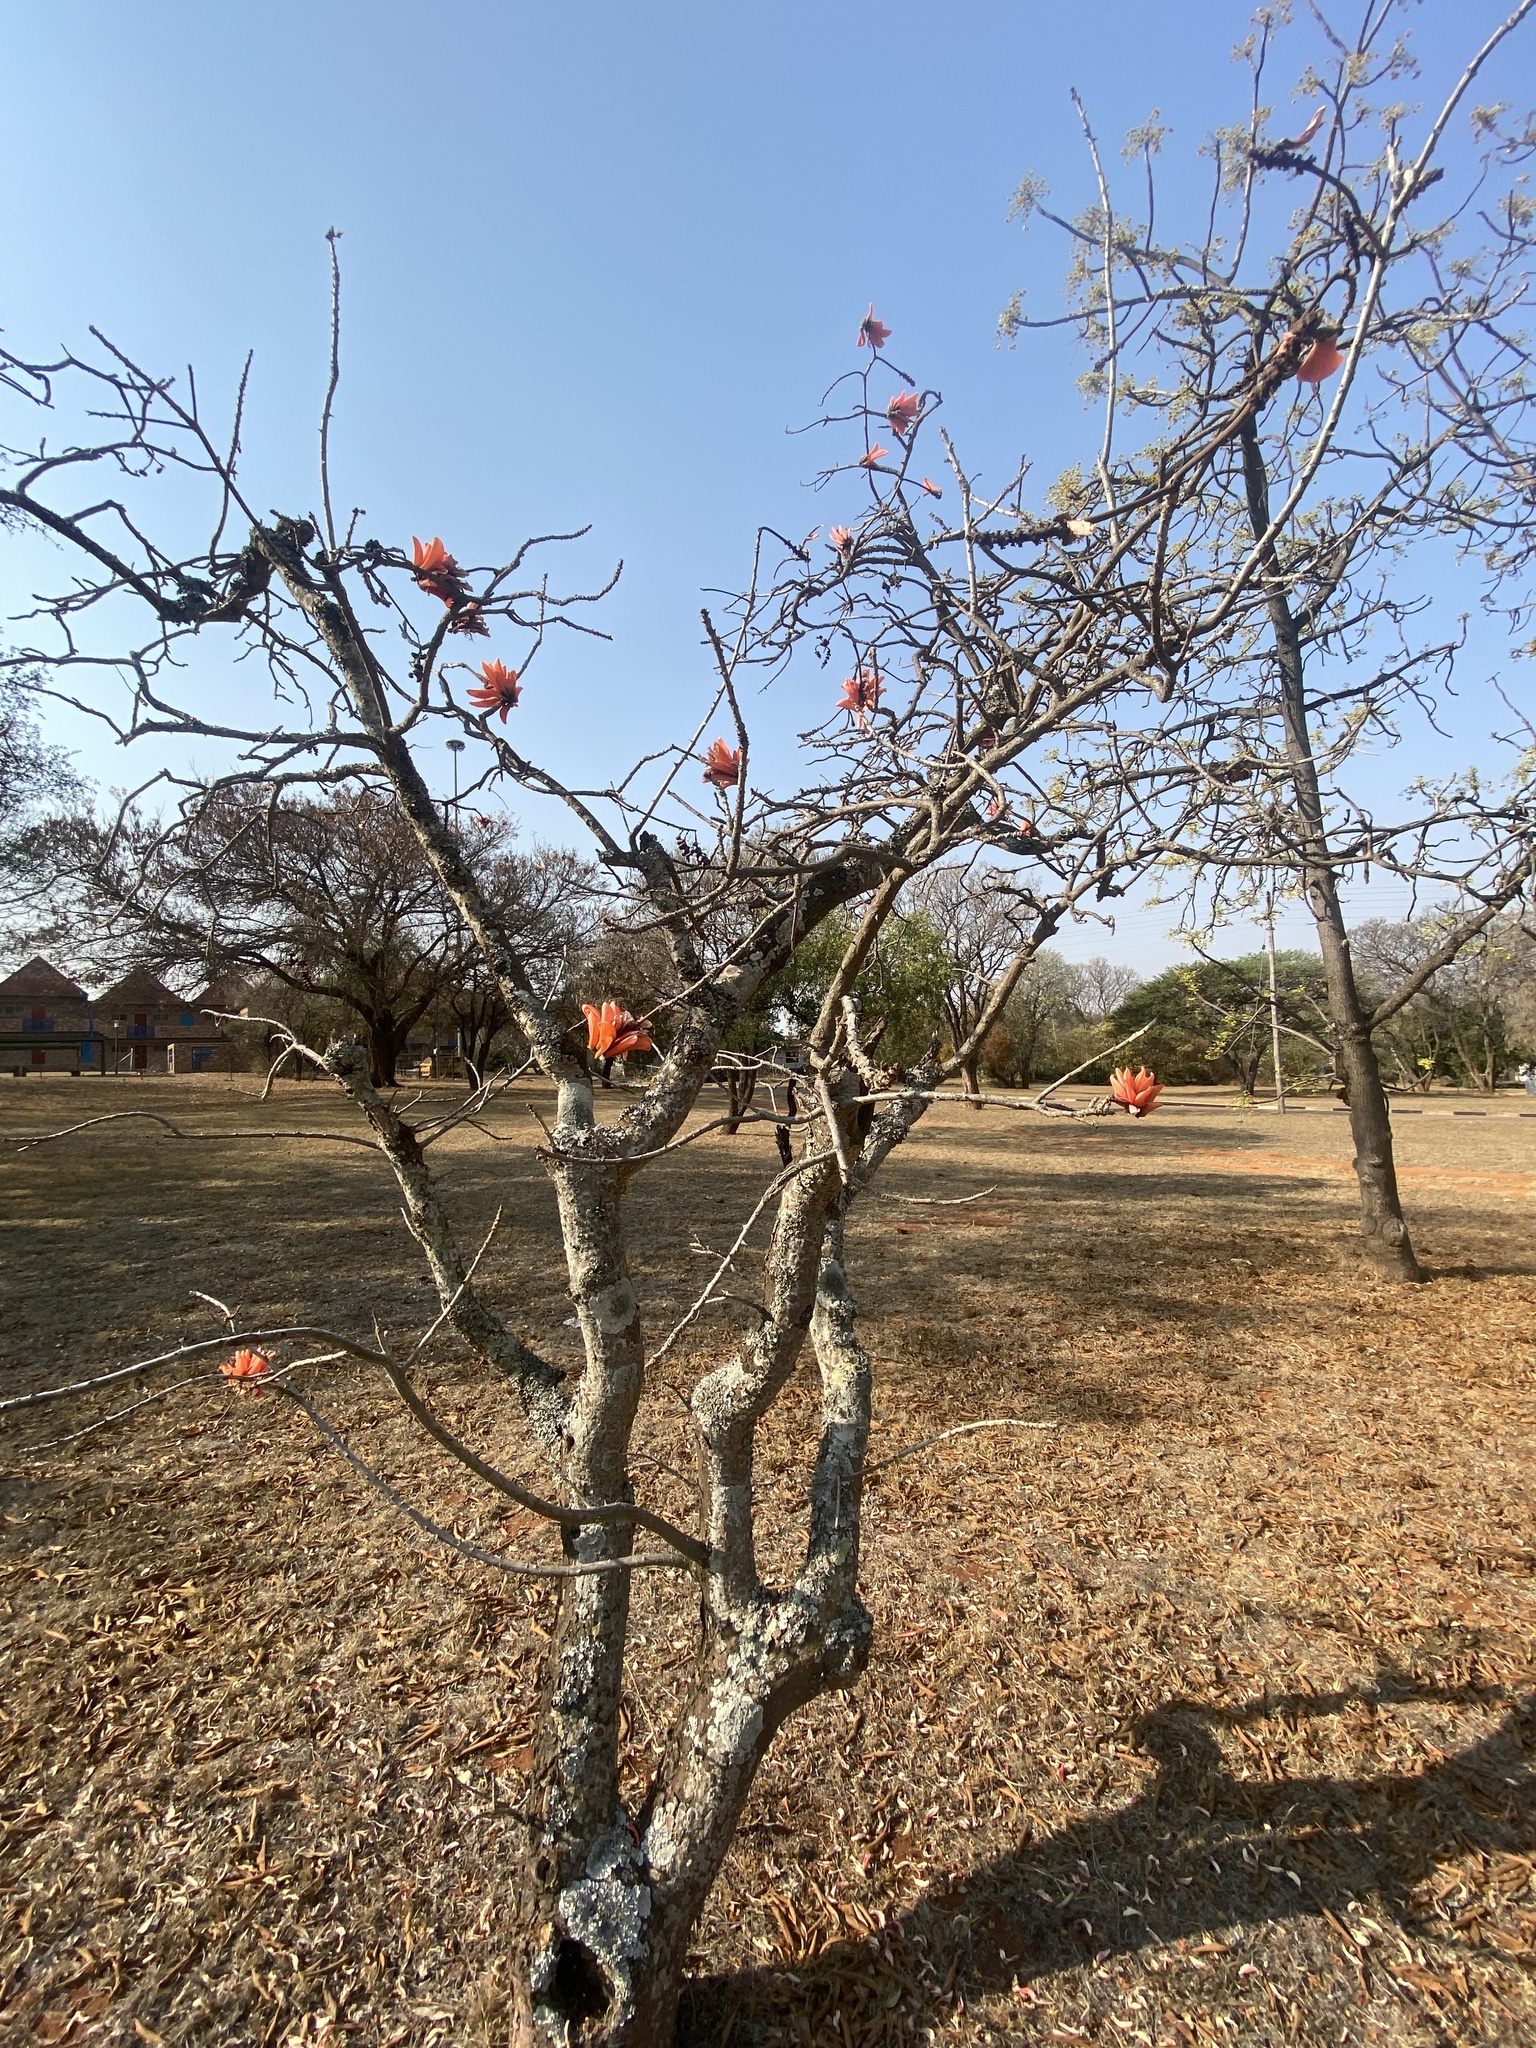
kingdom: Plantae
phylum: Tracheophyta
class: Magnoliopsida
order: Fabales
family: Fabaceae
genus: Erythrina
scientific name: Erythrina lysistemon
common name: Common coral tree
